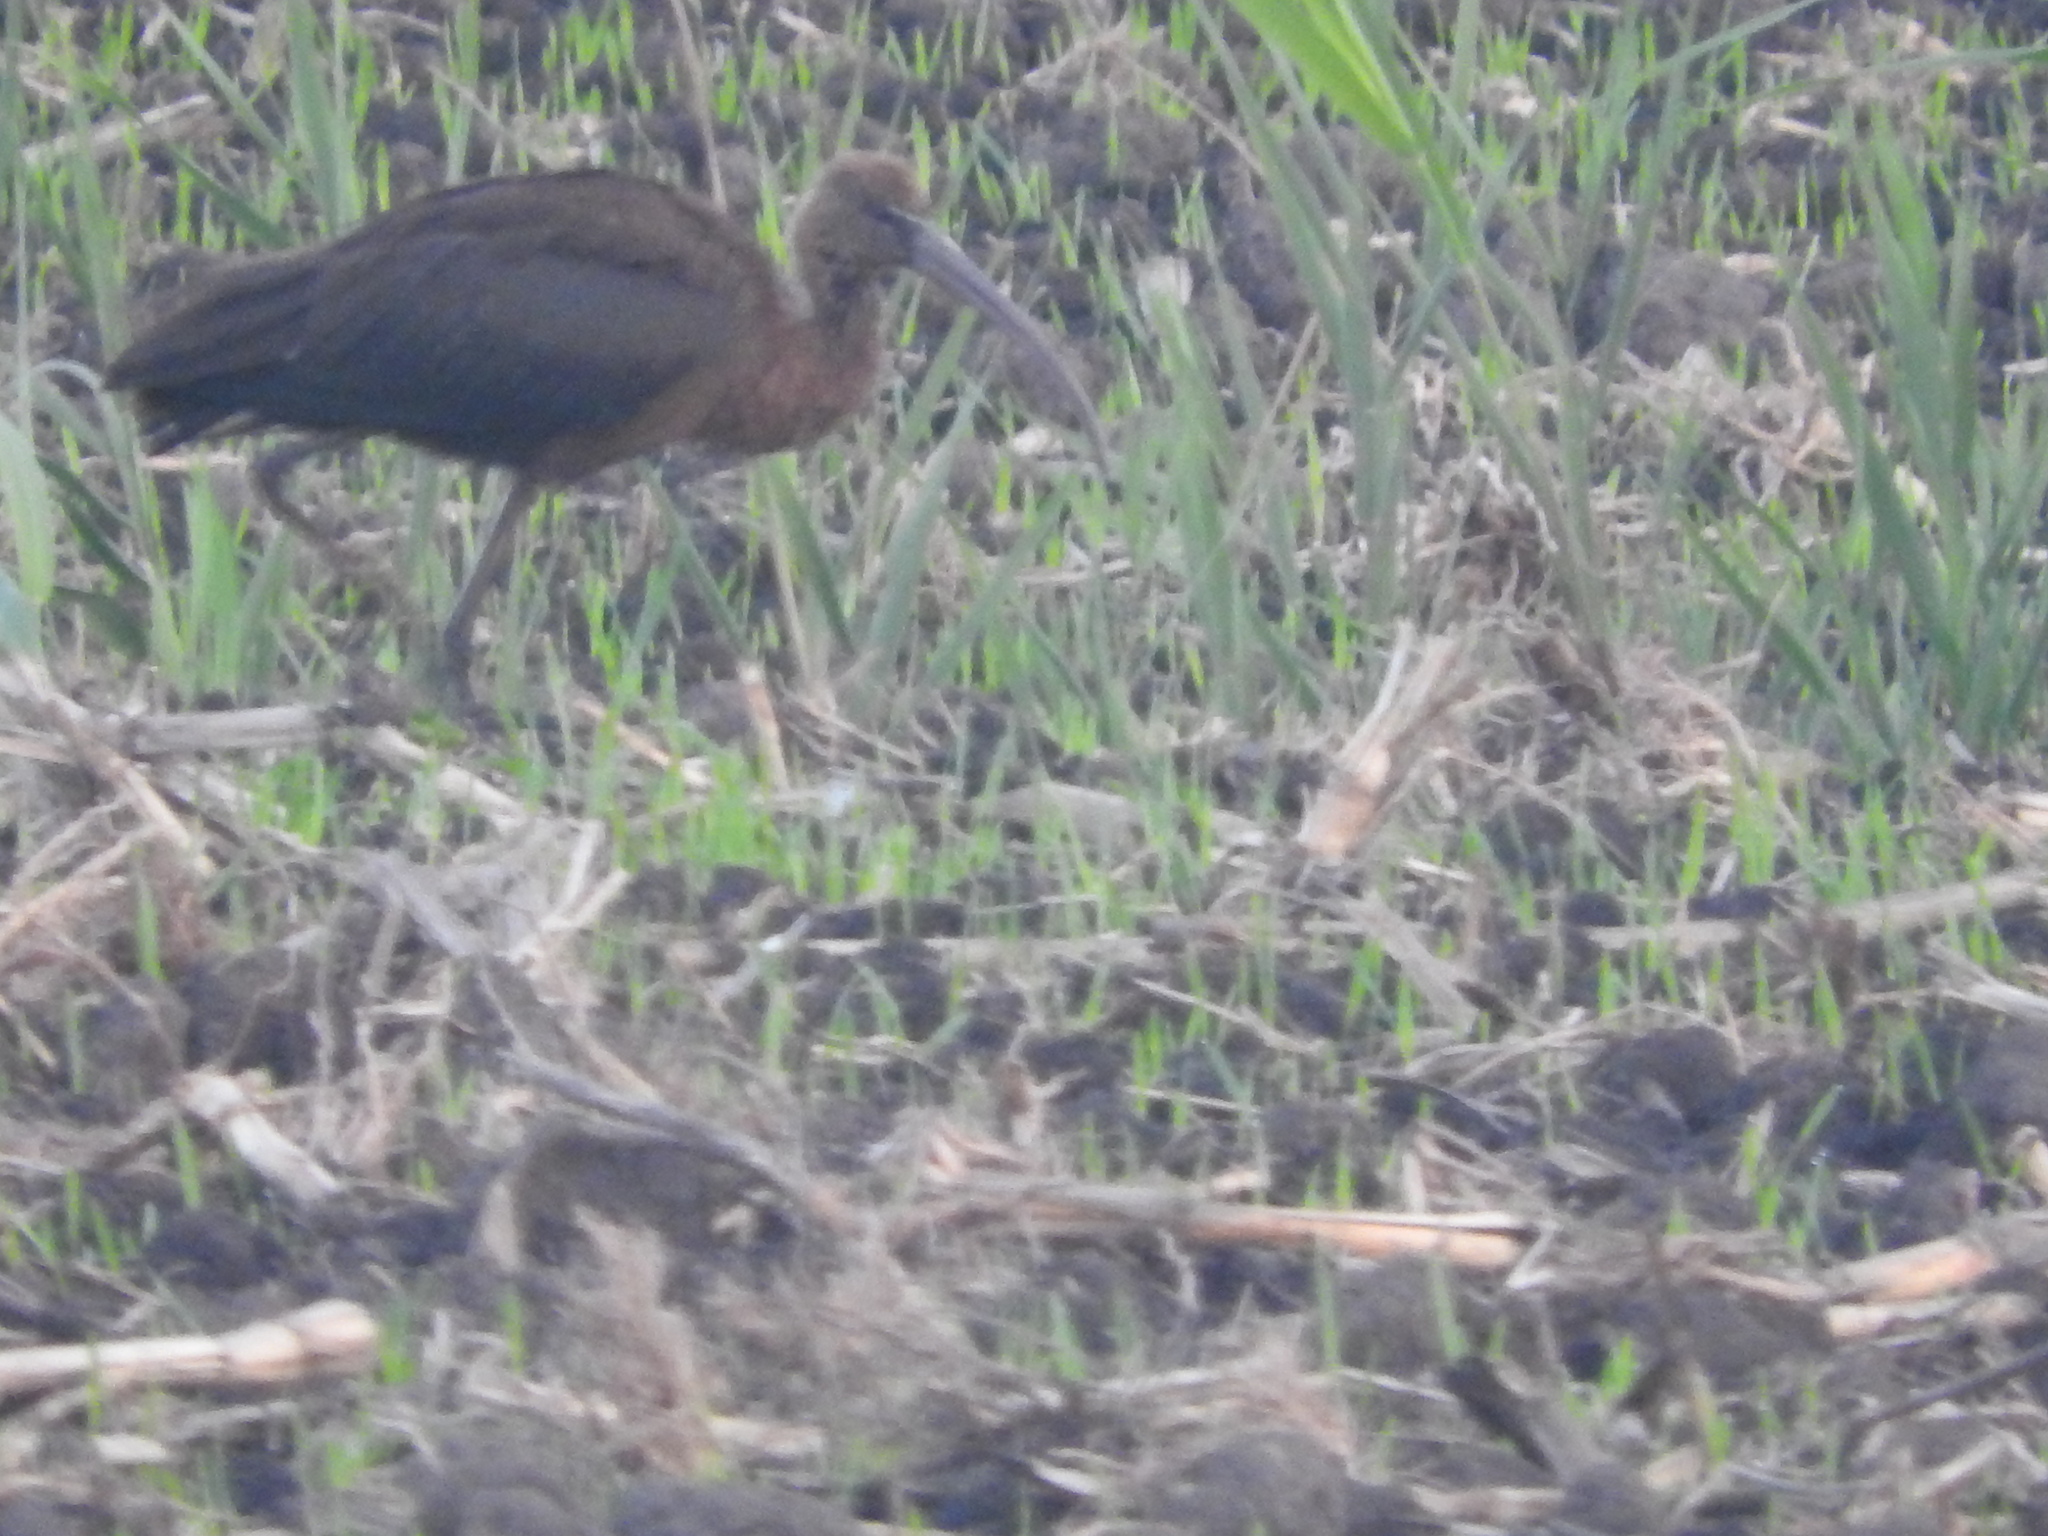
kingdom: Animalia
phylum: Chordata
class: Aves
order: Pelecaniformes
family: Threskiornithidae
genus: Plegadis
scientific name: Plegadis falcinellus
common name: Glossy ibis
